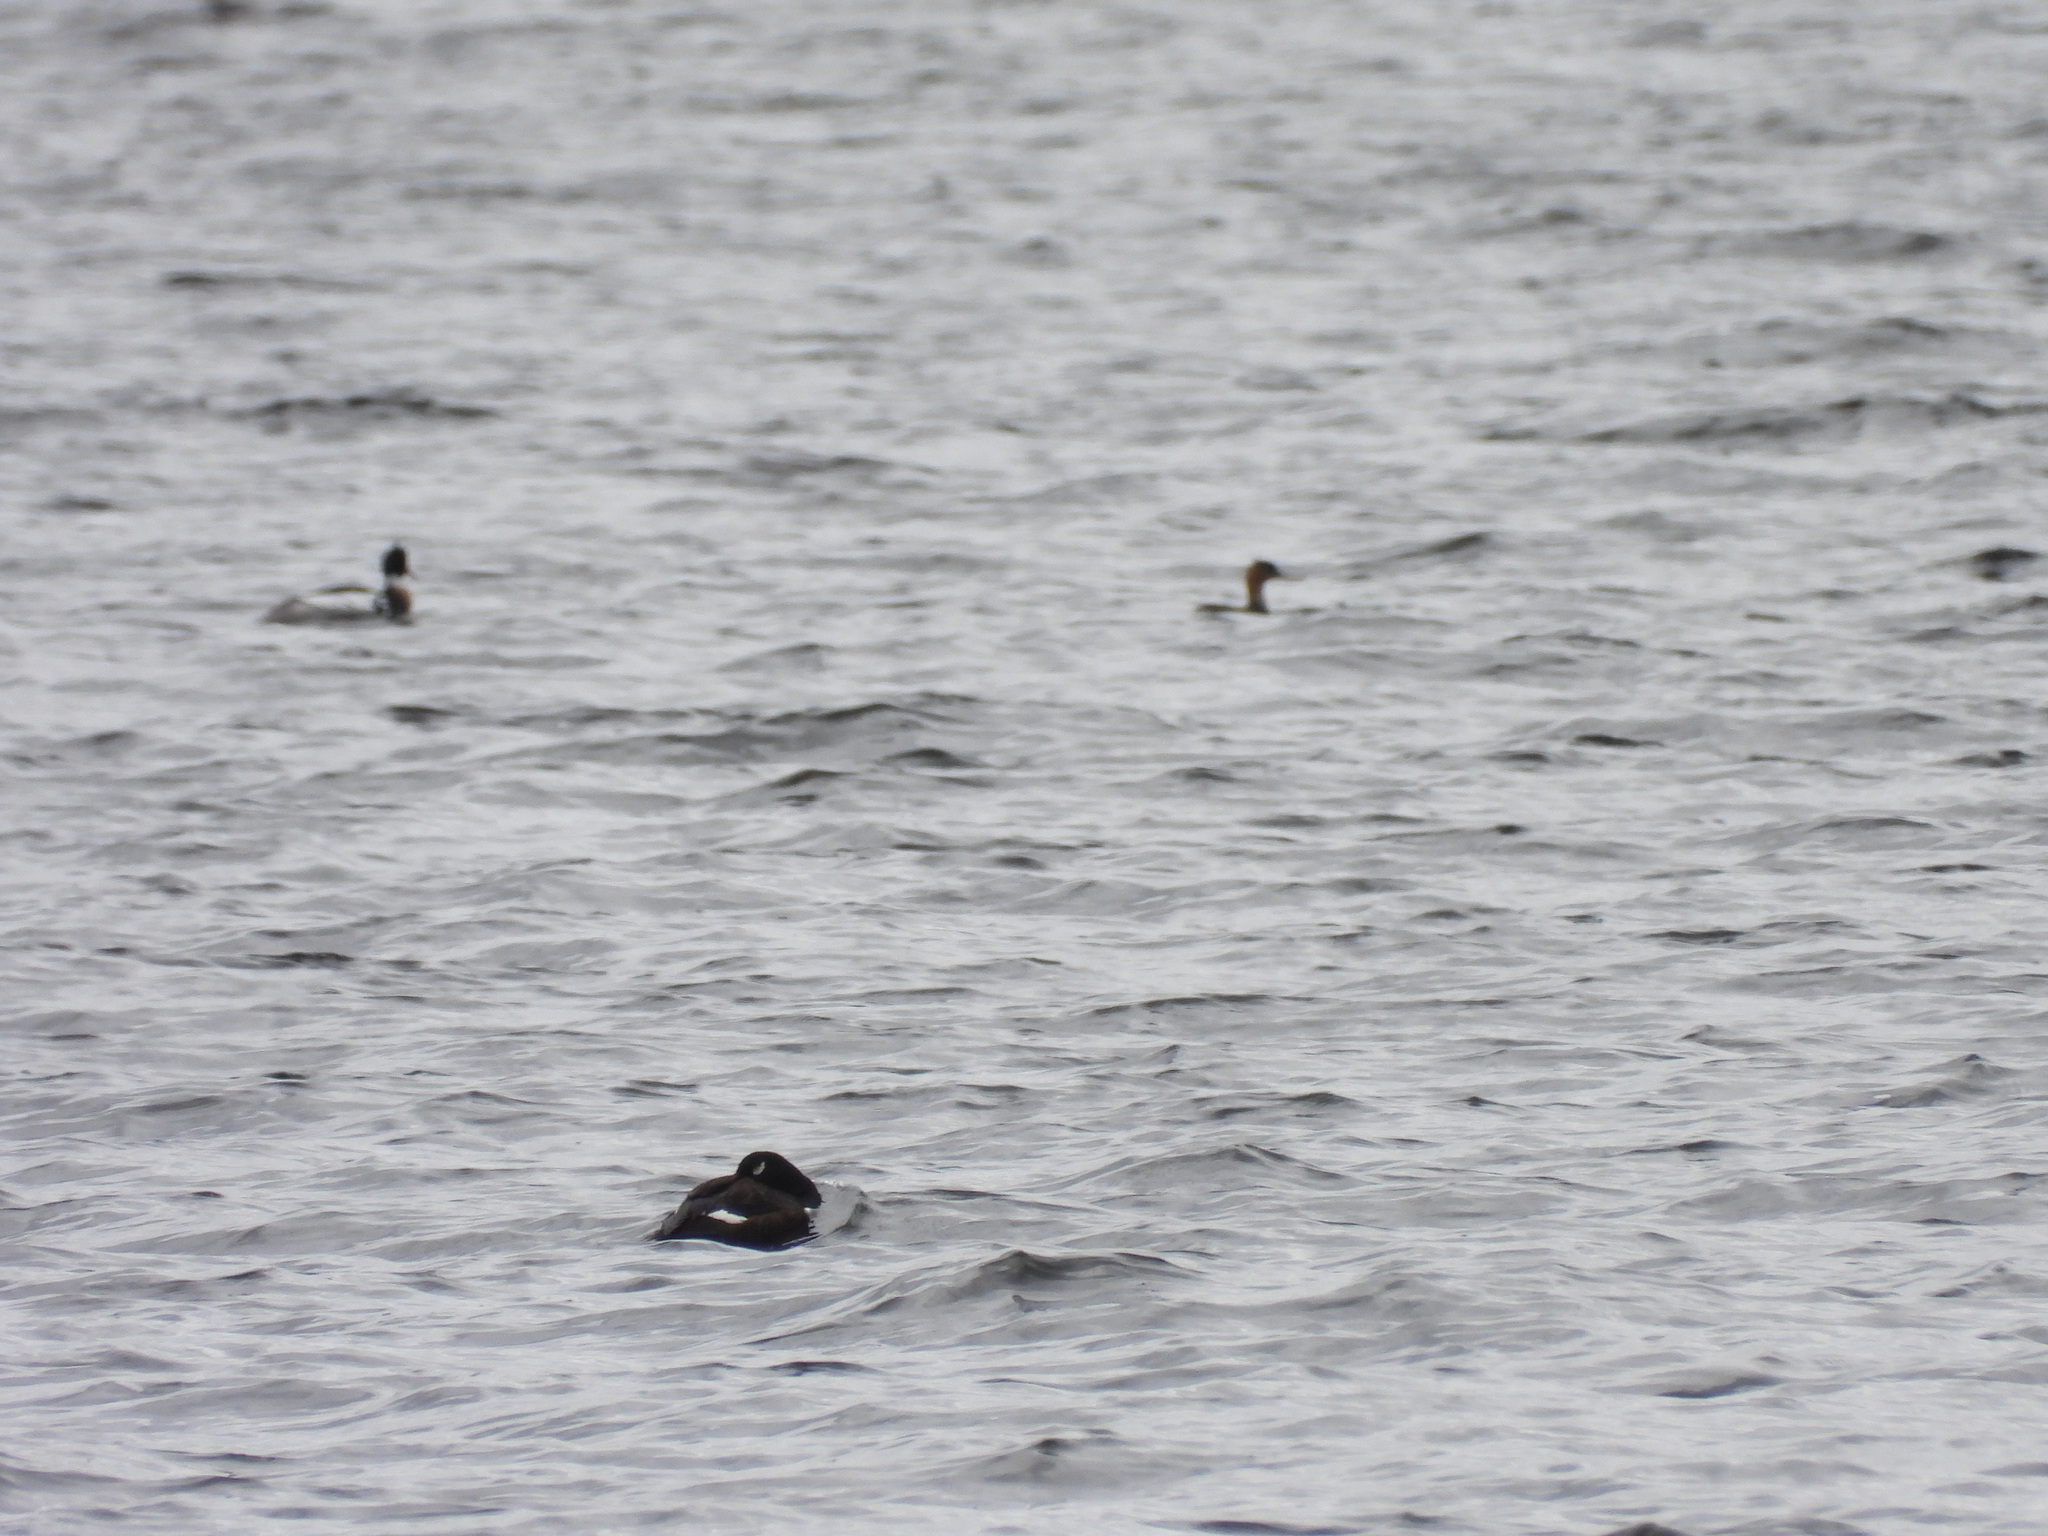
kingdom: Animalia
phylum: Chordata
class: Aves
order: Anseriformes
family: Anatidae
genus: Melanitta
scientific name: Melanitta deglandi
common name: White-winged scoter
